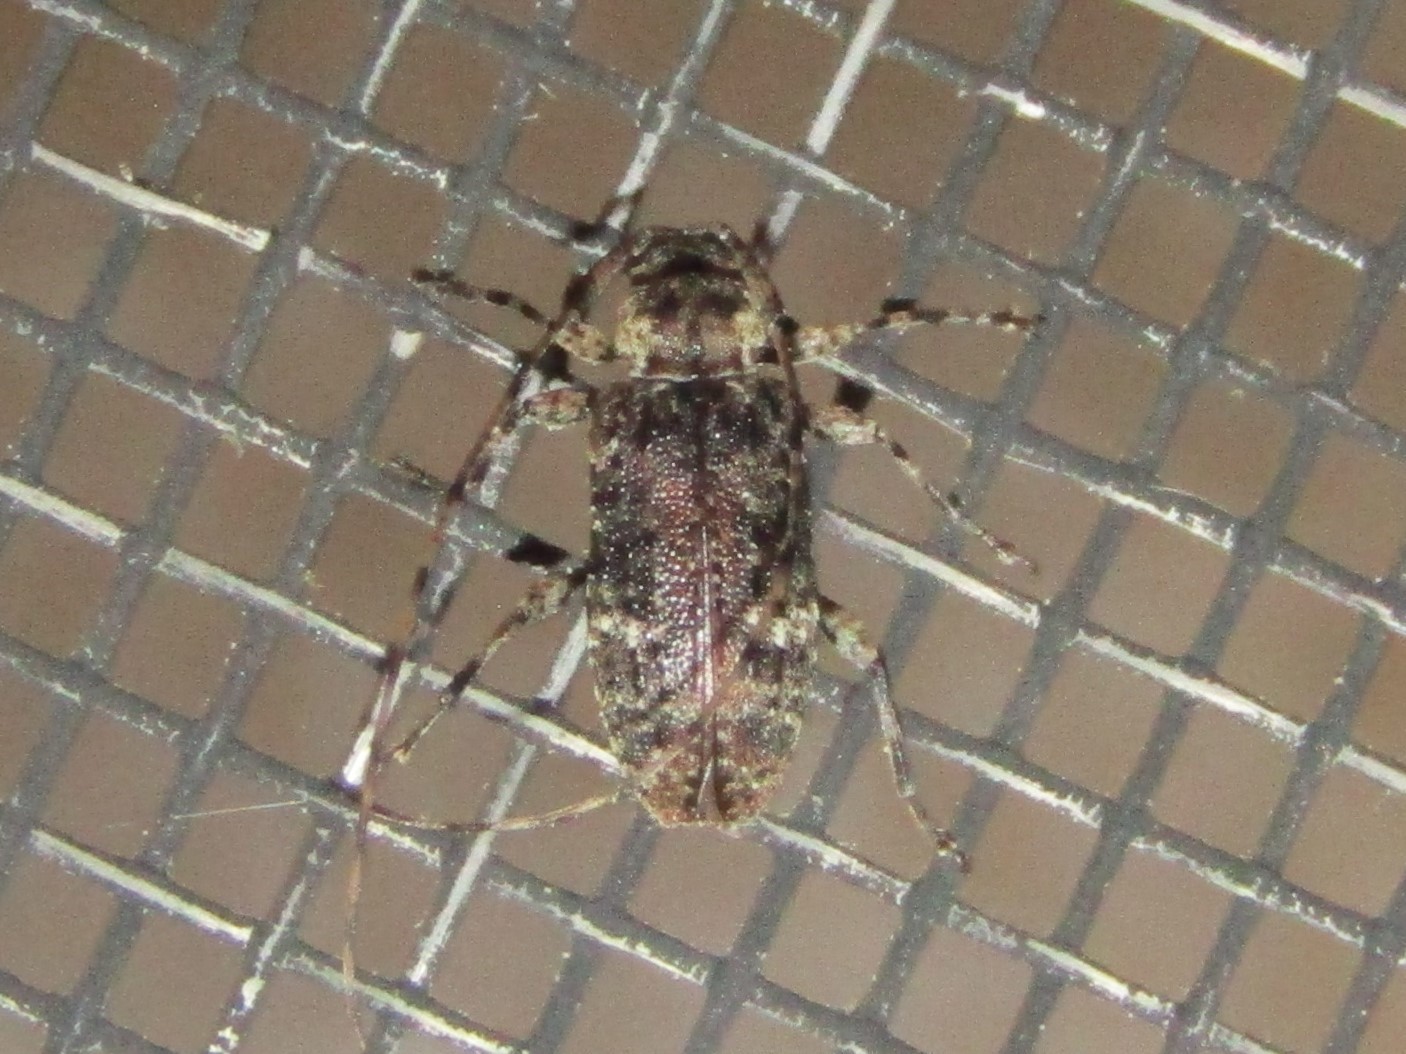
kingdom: Animalia
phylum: Arthropoda
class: Insecta
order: Coleoptera
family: Cerambycidae
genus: Sternidius
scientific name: Sternidius punctatus
